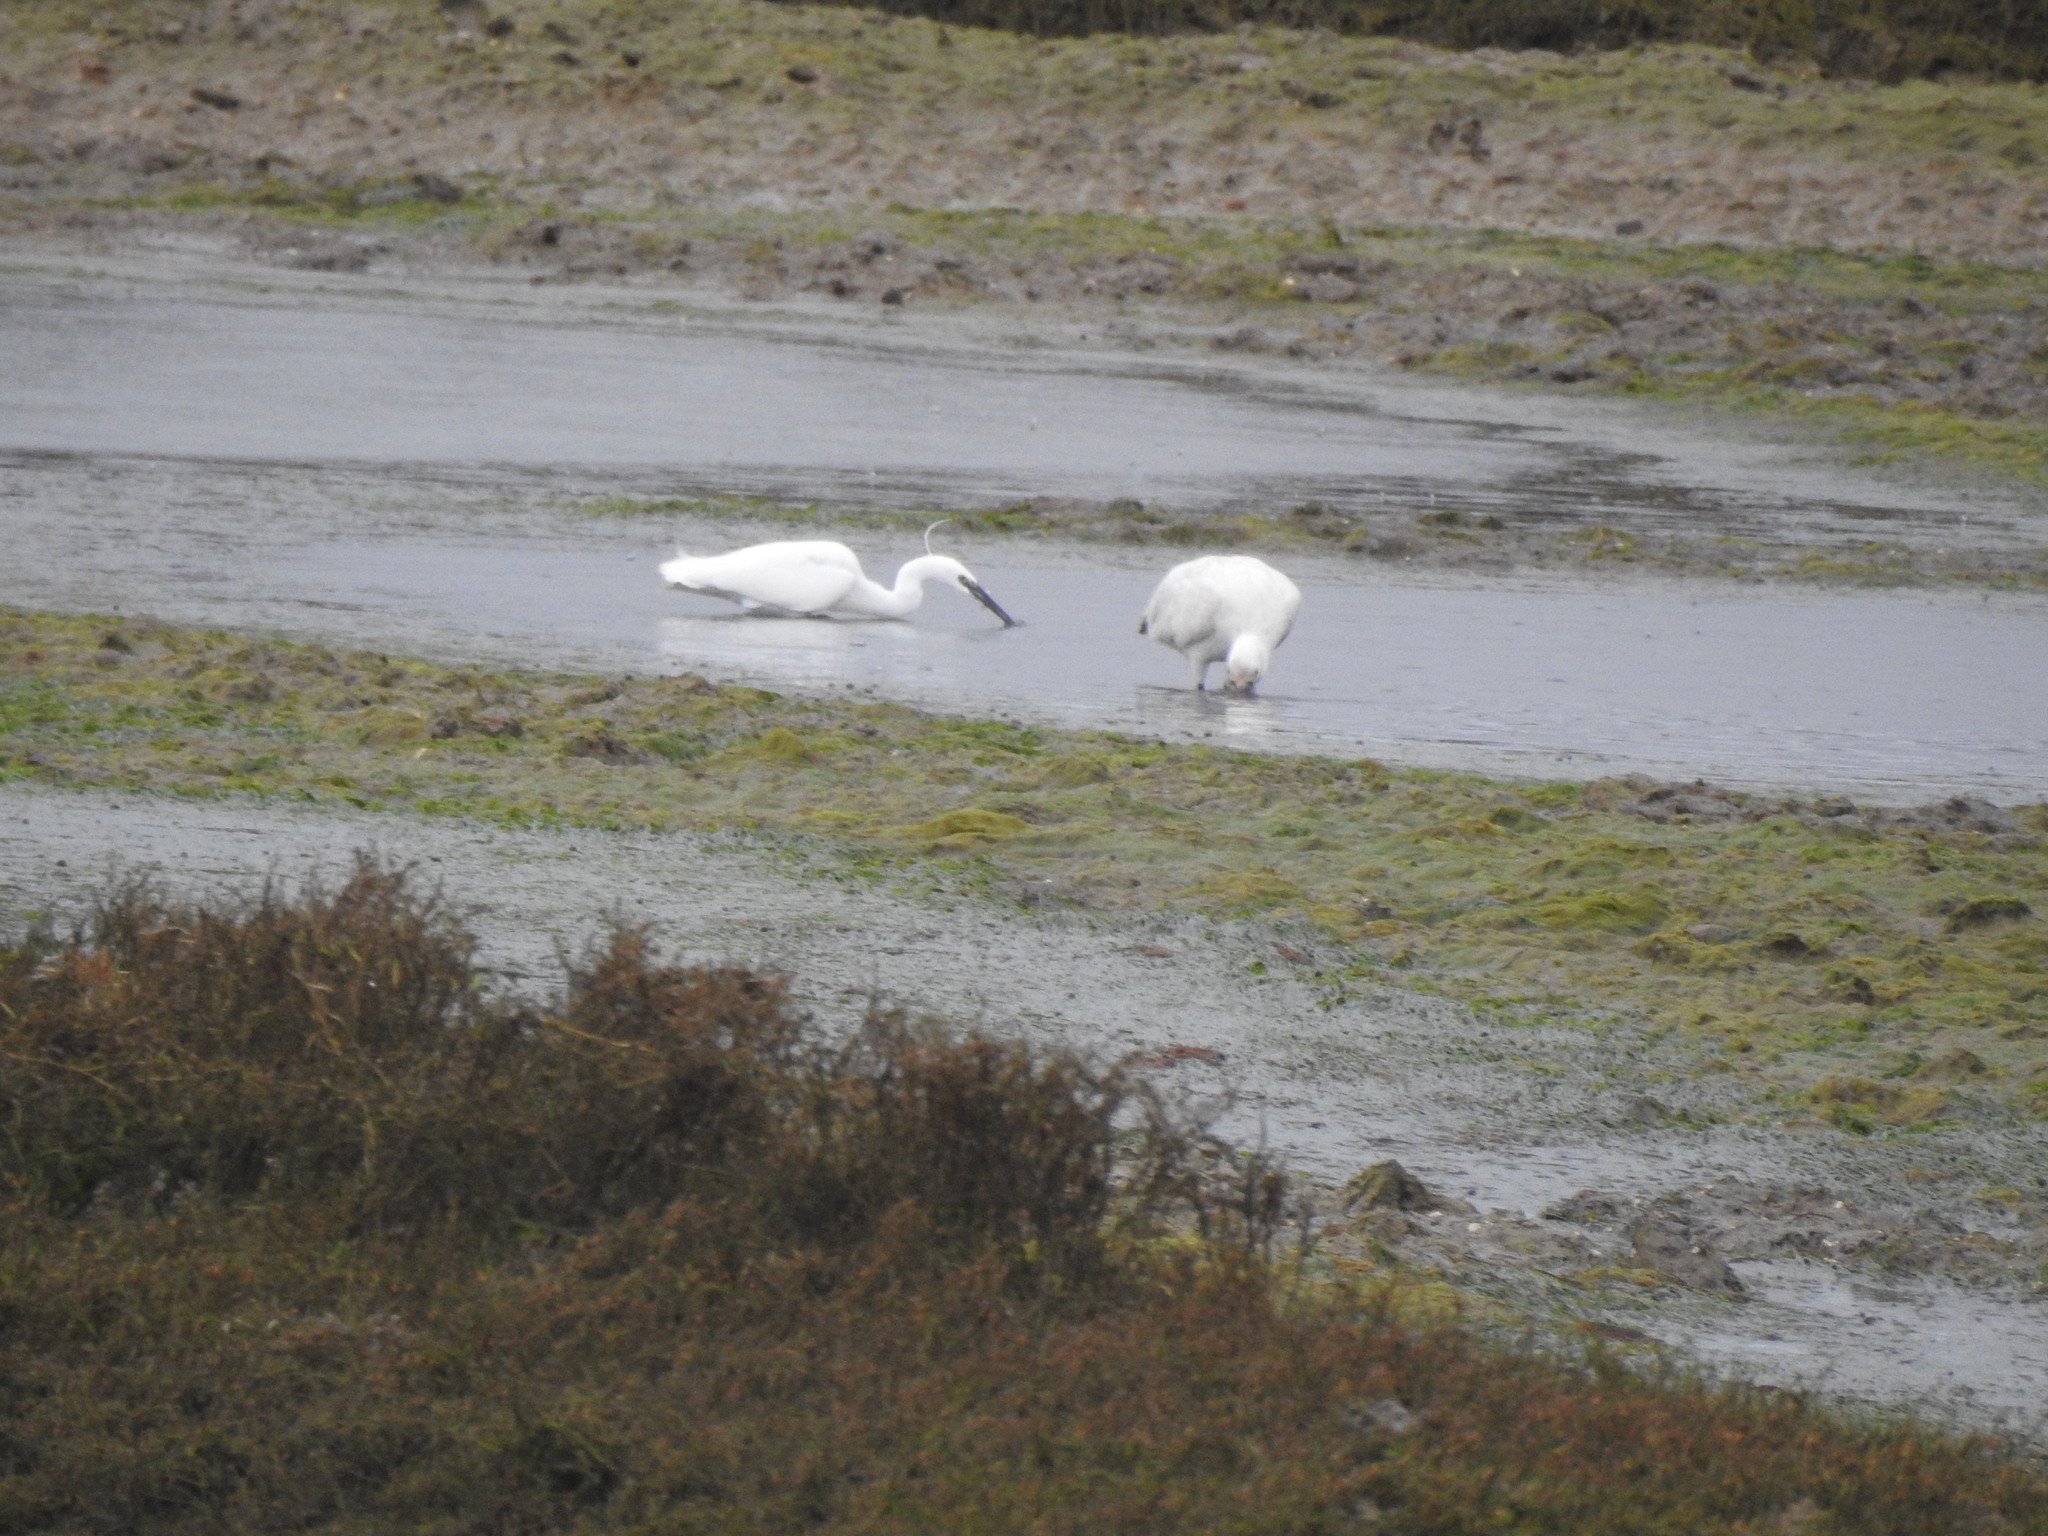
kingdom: Animalia
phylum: Chordata
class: Aves
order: Pelecaniformes
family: Ardeidae
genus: Egretta
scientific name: Egretta garzetta
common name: Little egret
